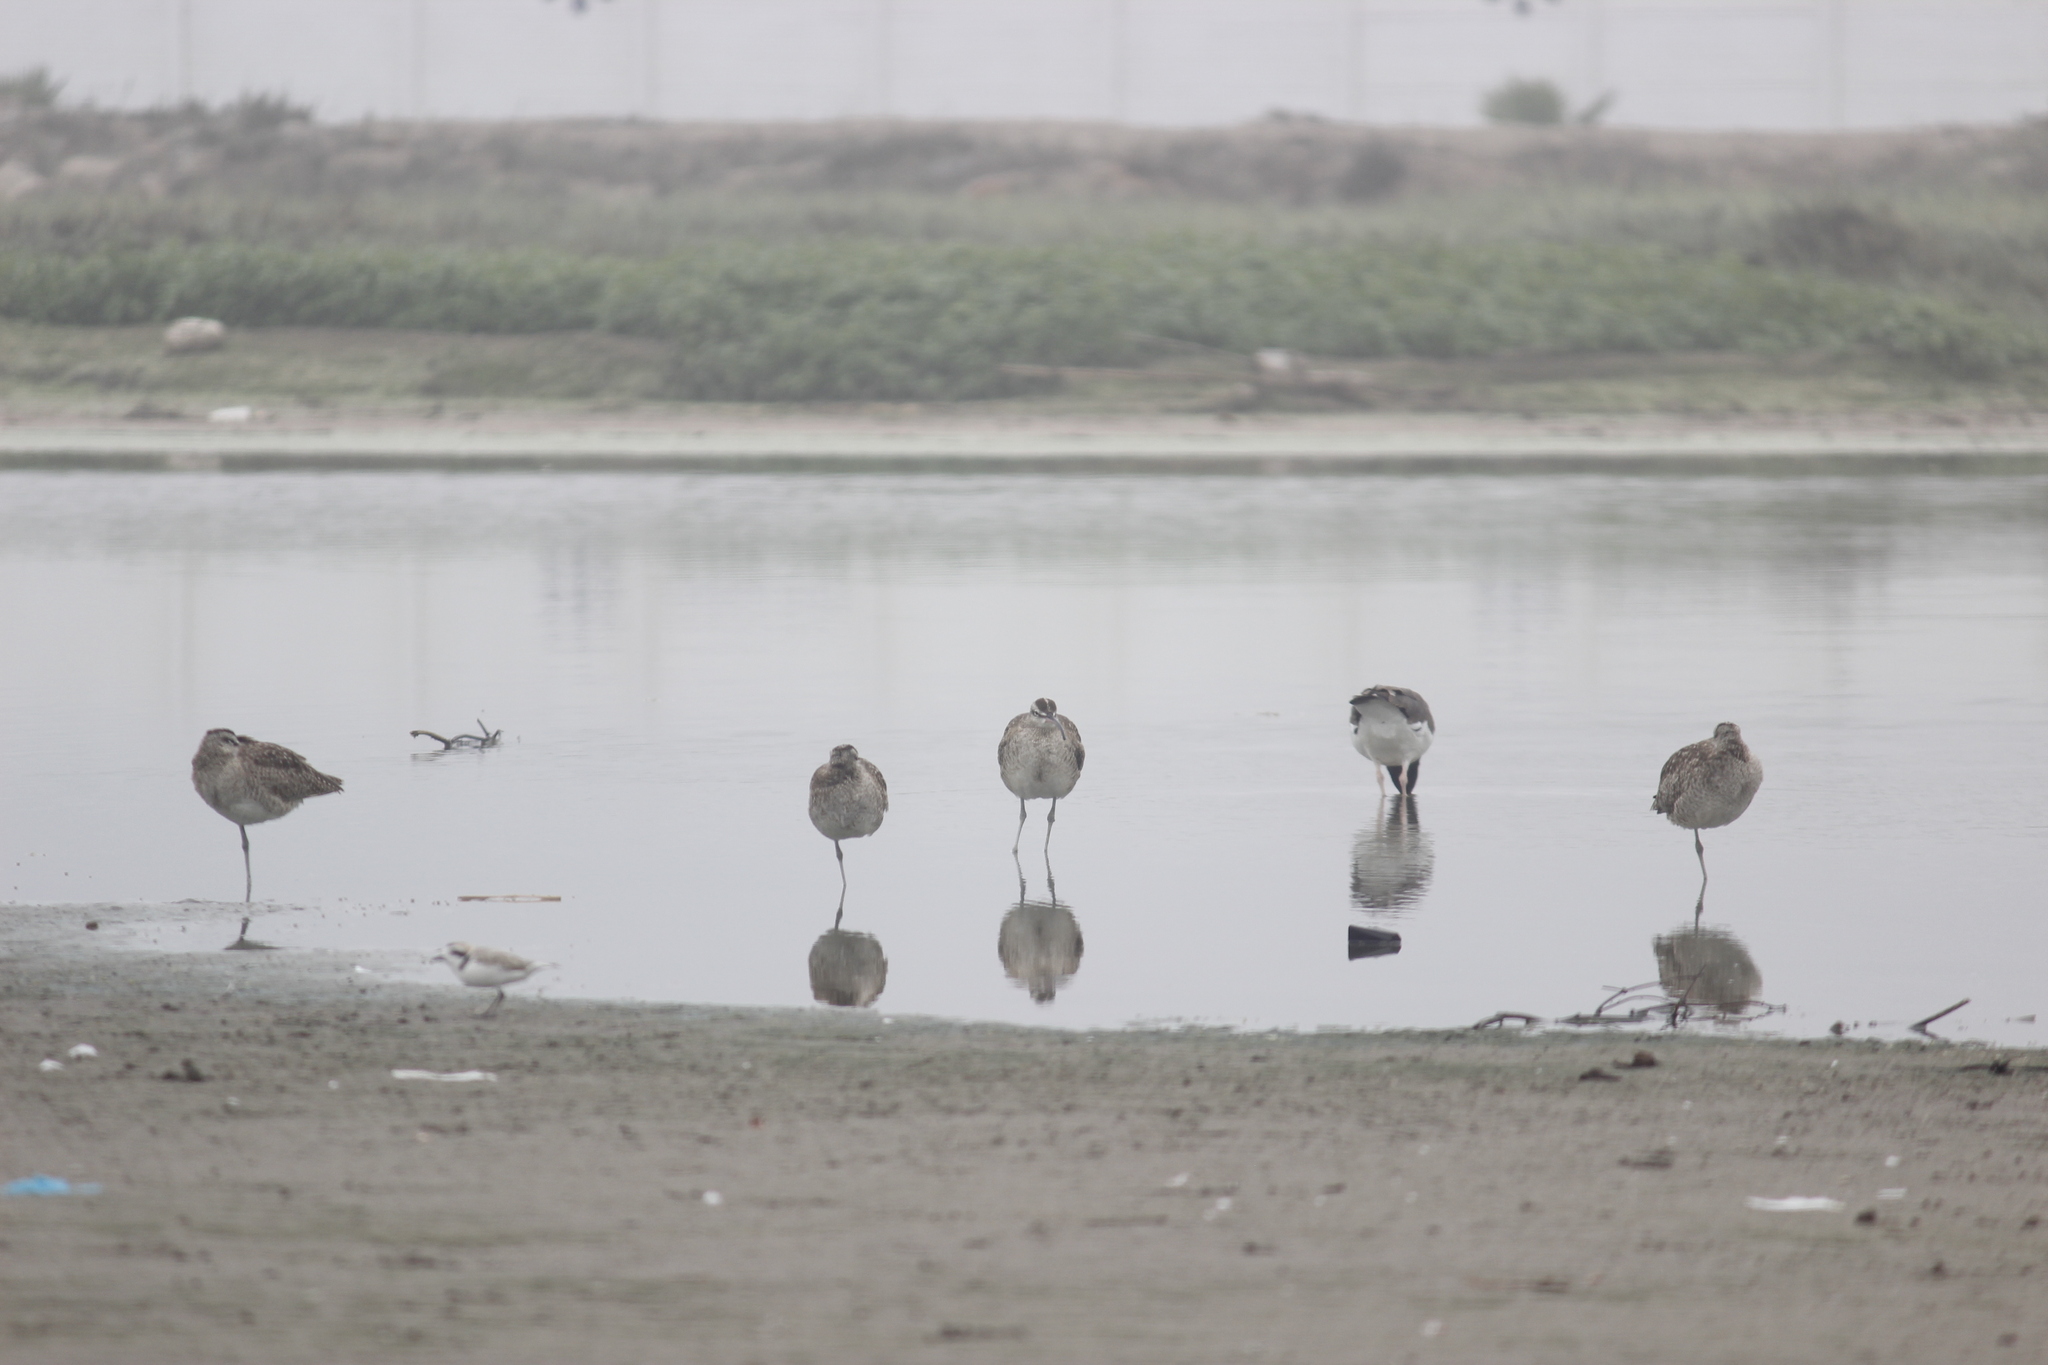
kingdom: Animalia
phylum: Chordata
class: Aves
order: Charadriiformes
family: Scolopacidae
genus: Numenius
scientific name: Numenius phaeopus
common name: Whimbrel
